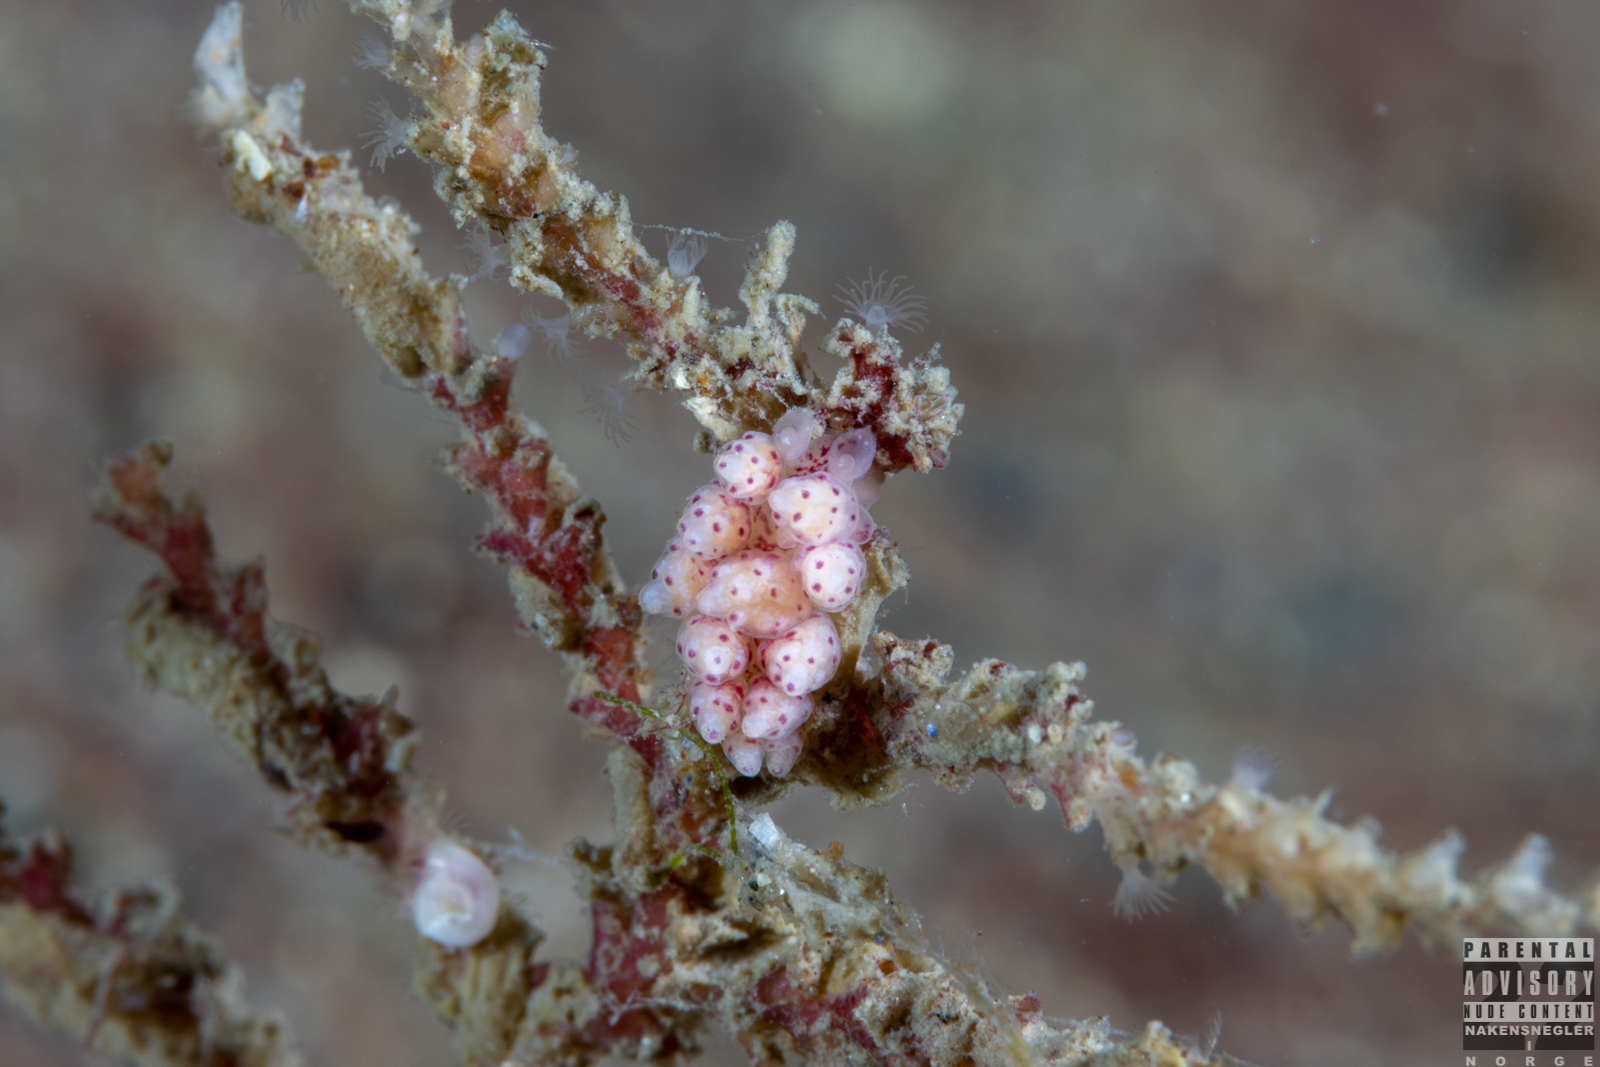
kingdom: Animalia
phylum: Mollusca
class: Gastropoda
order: Nudibranchia
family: Dotidae
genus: Doto
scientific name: Doto coronata
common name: Coronate doto
